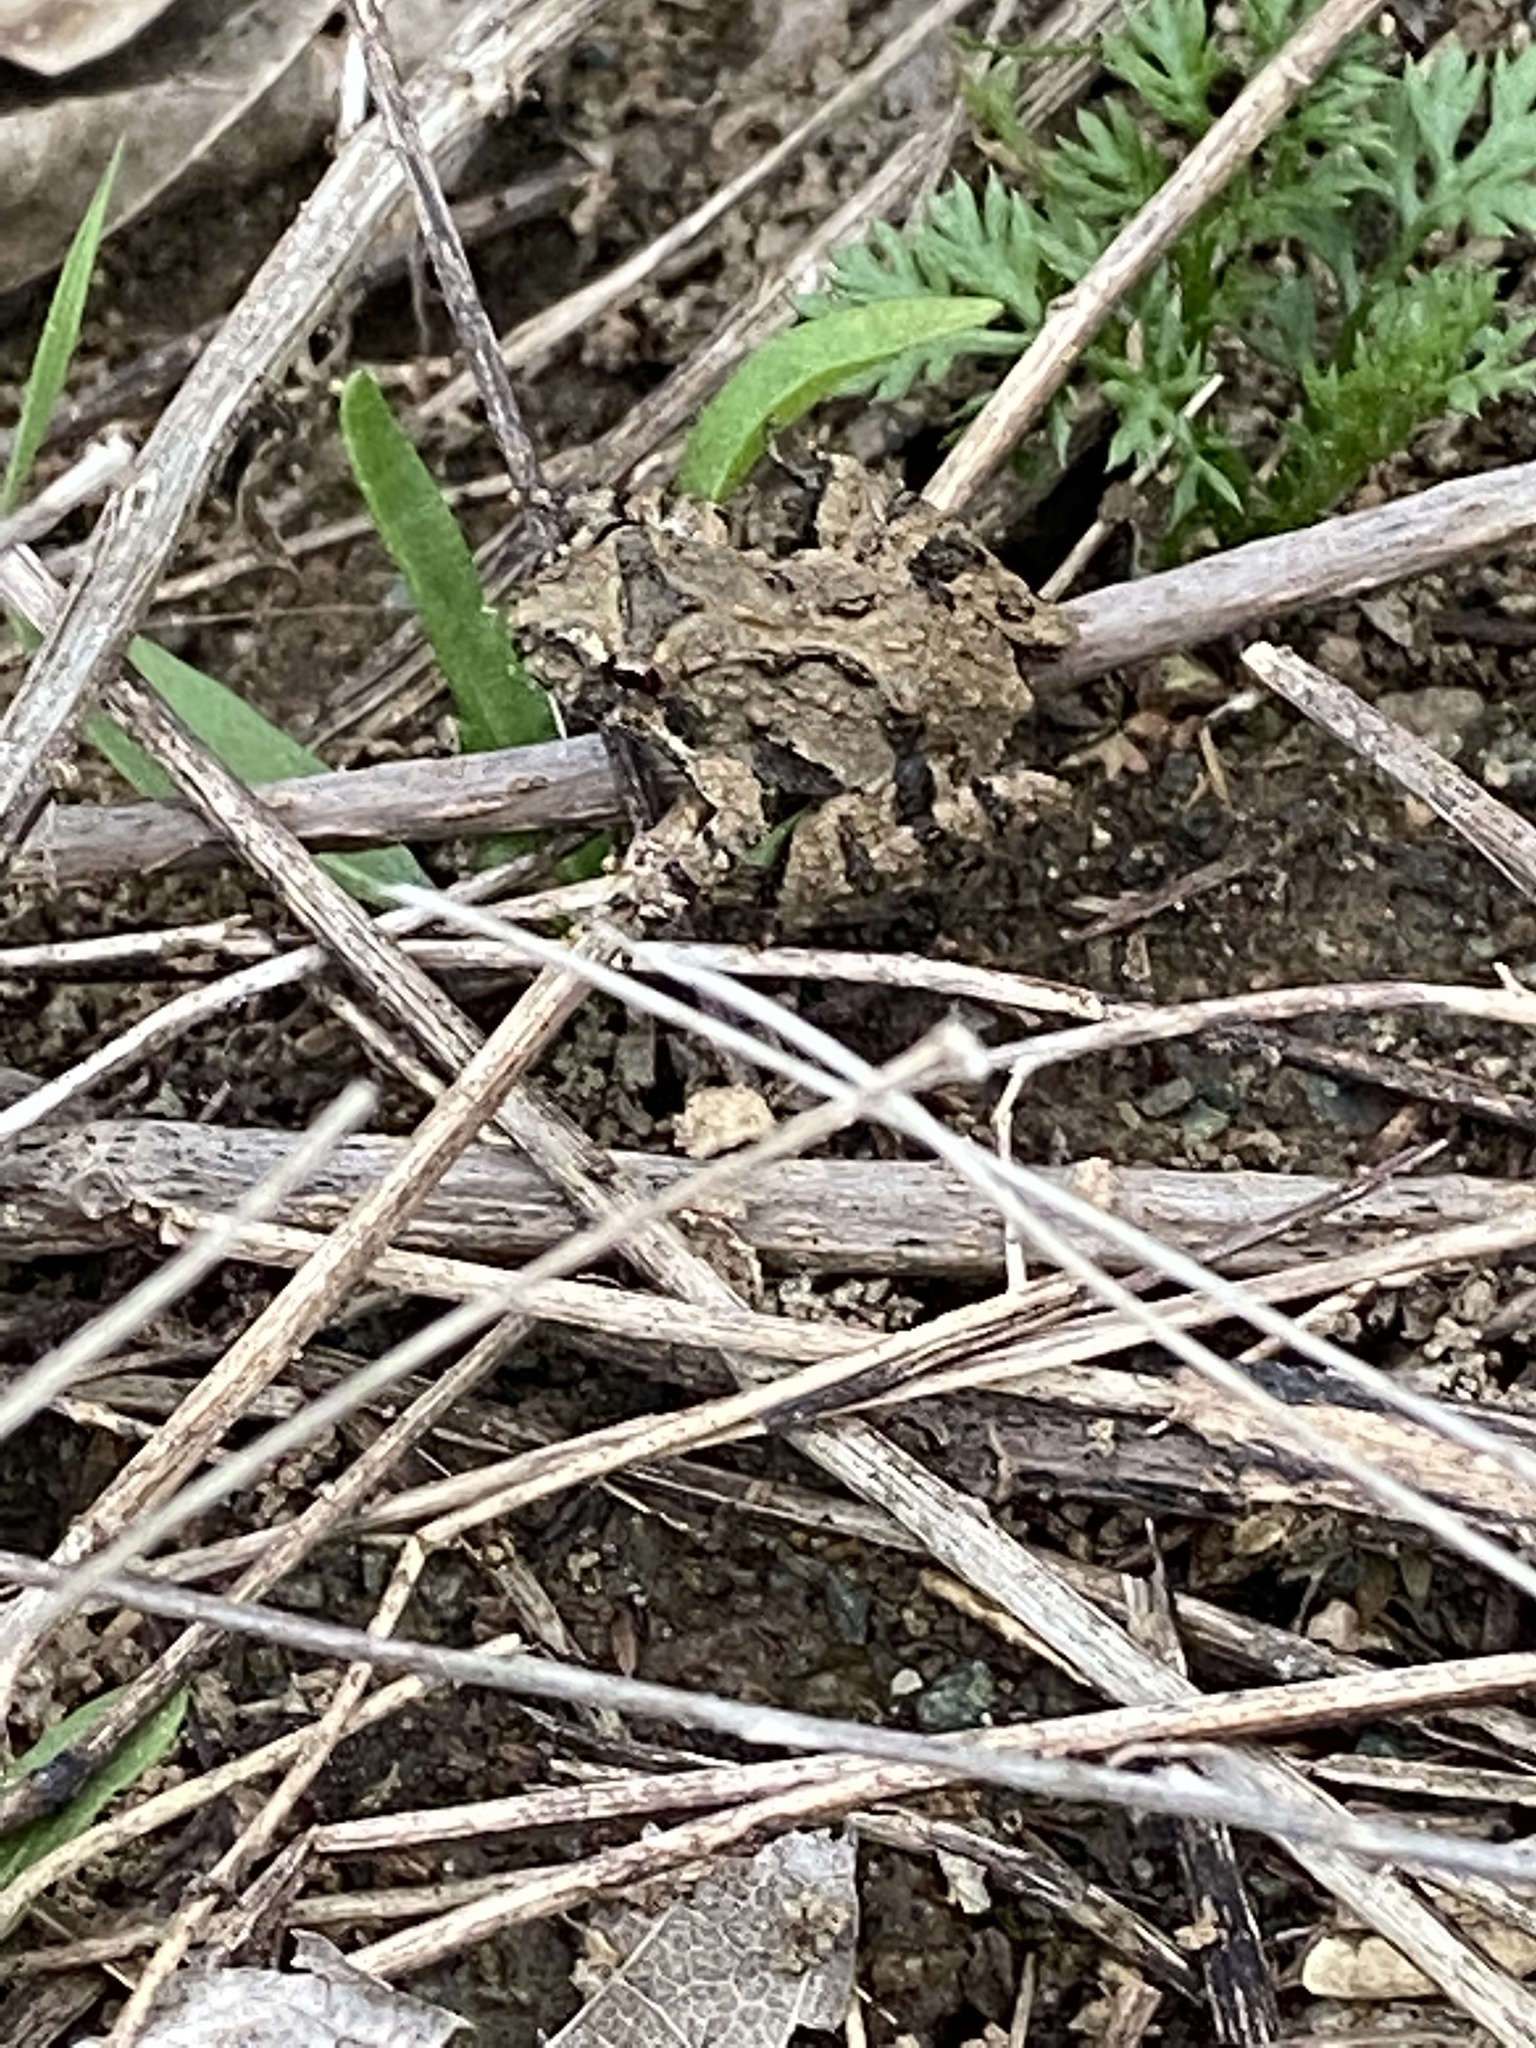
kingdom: Animalia
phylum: Chordata
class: Amphibia
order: Anura
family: Hylidae
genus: Acris
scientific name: Acris crepitans
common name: Northern cricket frog
